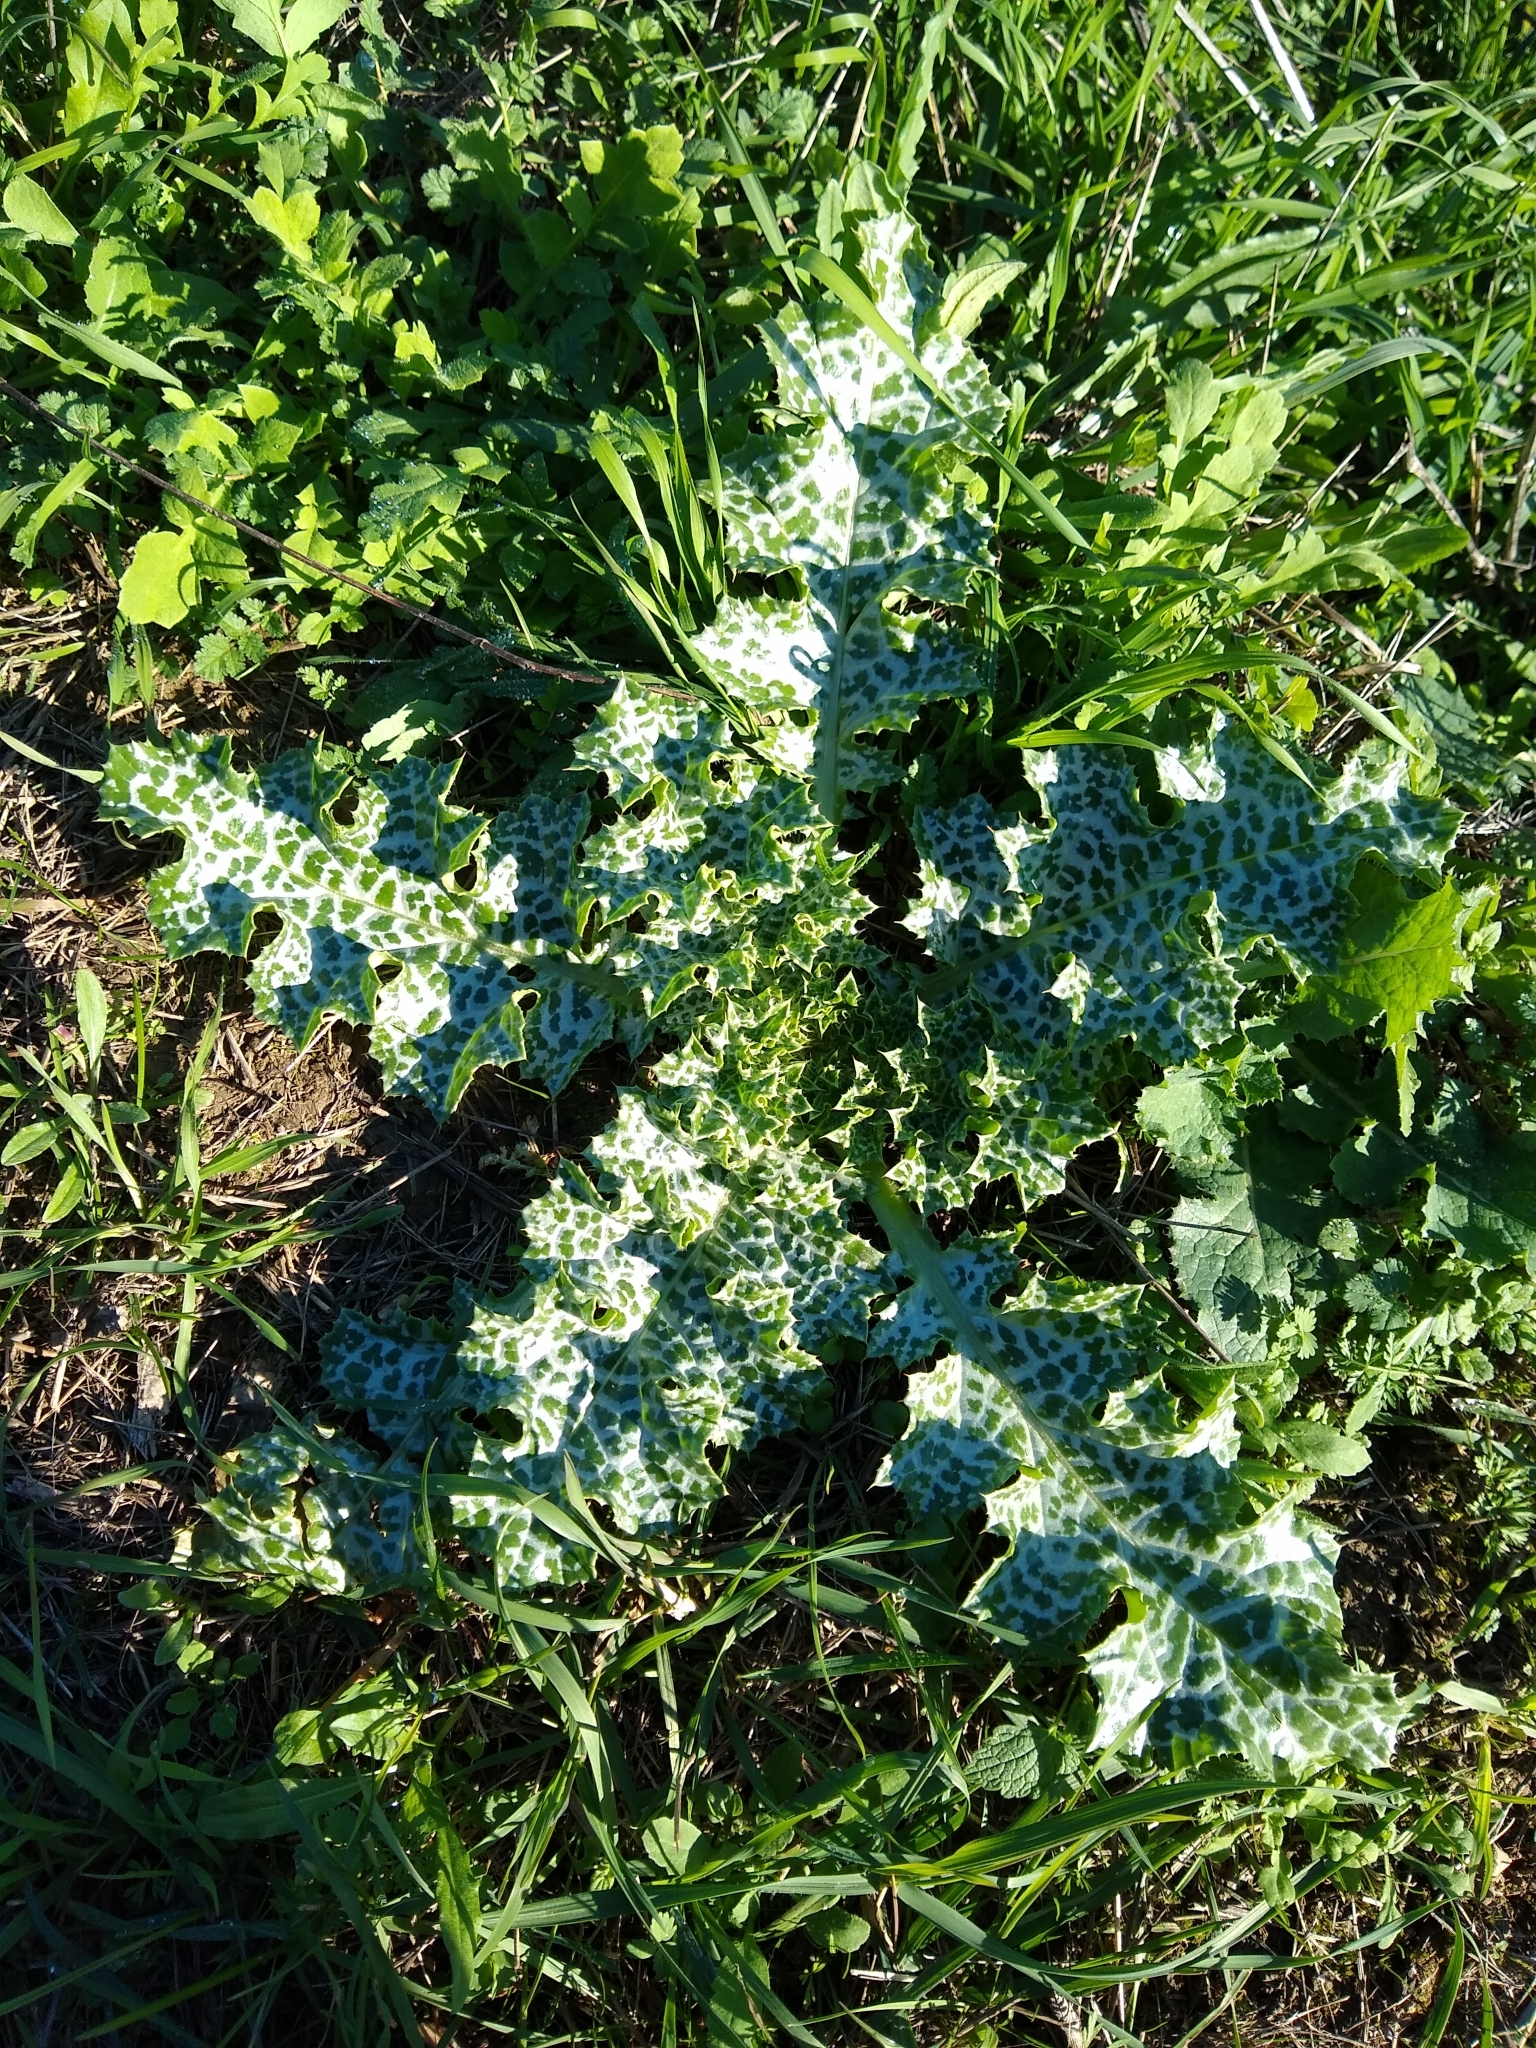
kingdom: Plantae
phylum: Tracheophyta
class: Magnoliopsida
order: Asterales
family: Asteraceae
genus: Silybum
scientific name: Silybum marianum
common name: Milk thistle
